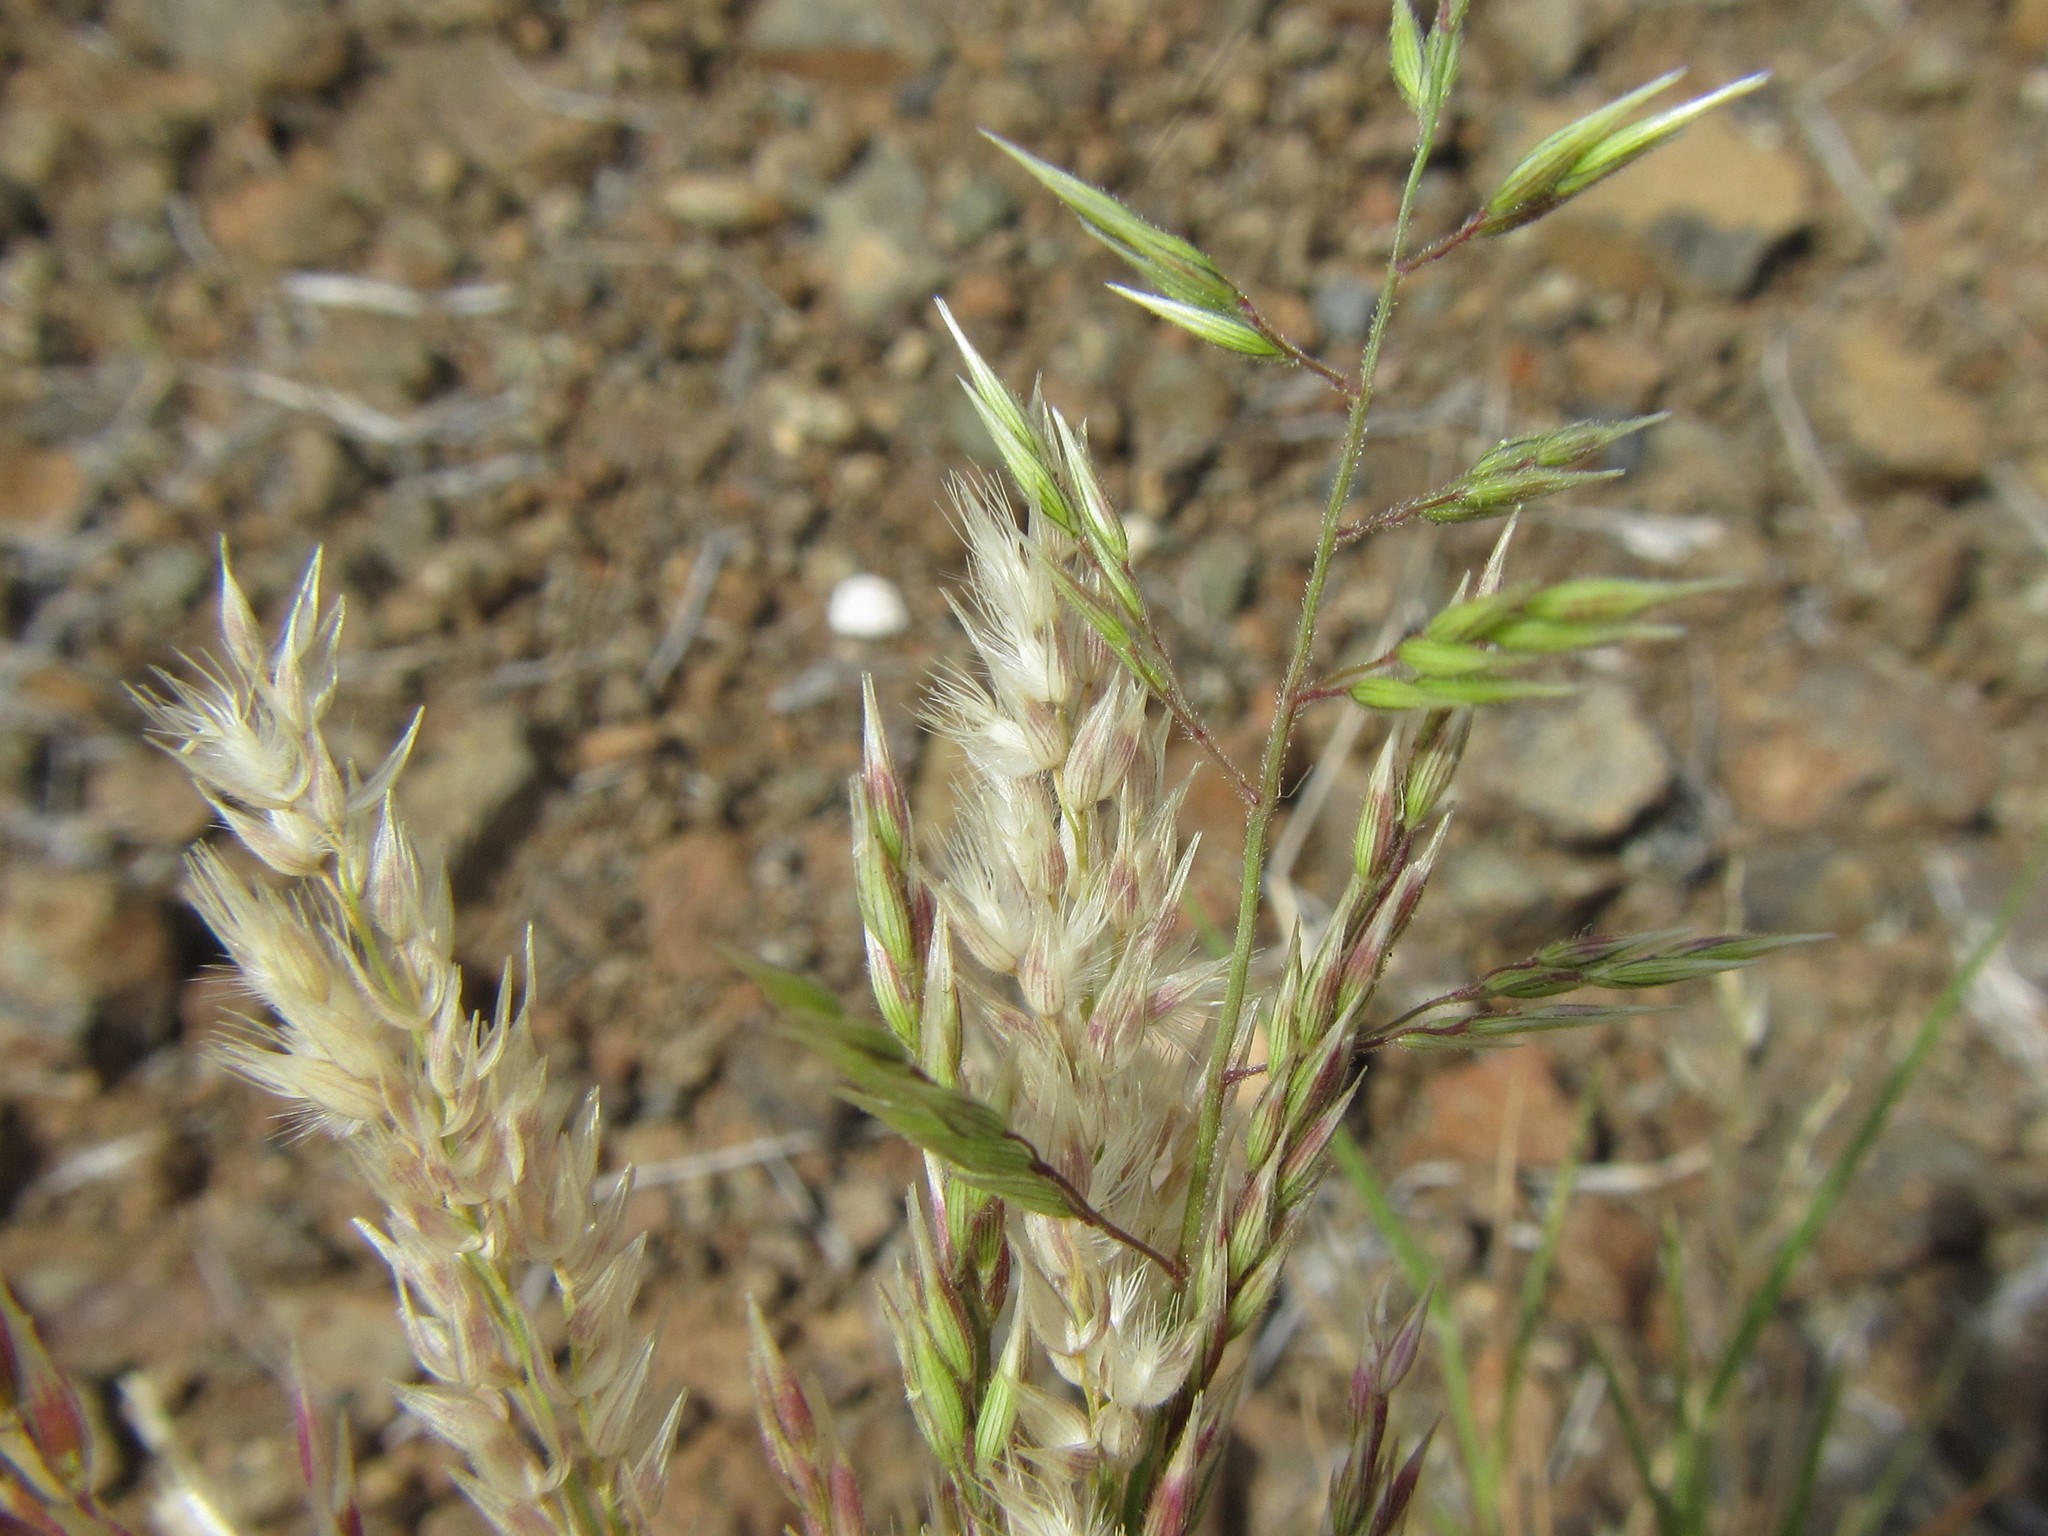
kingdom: Plantae
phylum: Tracheophyta
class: Liliopsida
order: Poales
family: Poaceae
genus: Enneapogon
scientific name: Enneapogon scoparius
